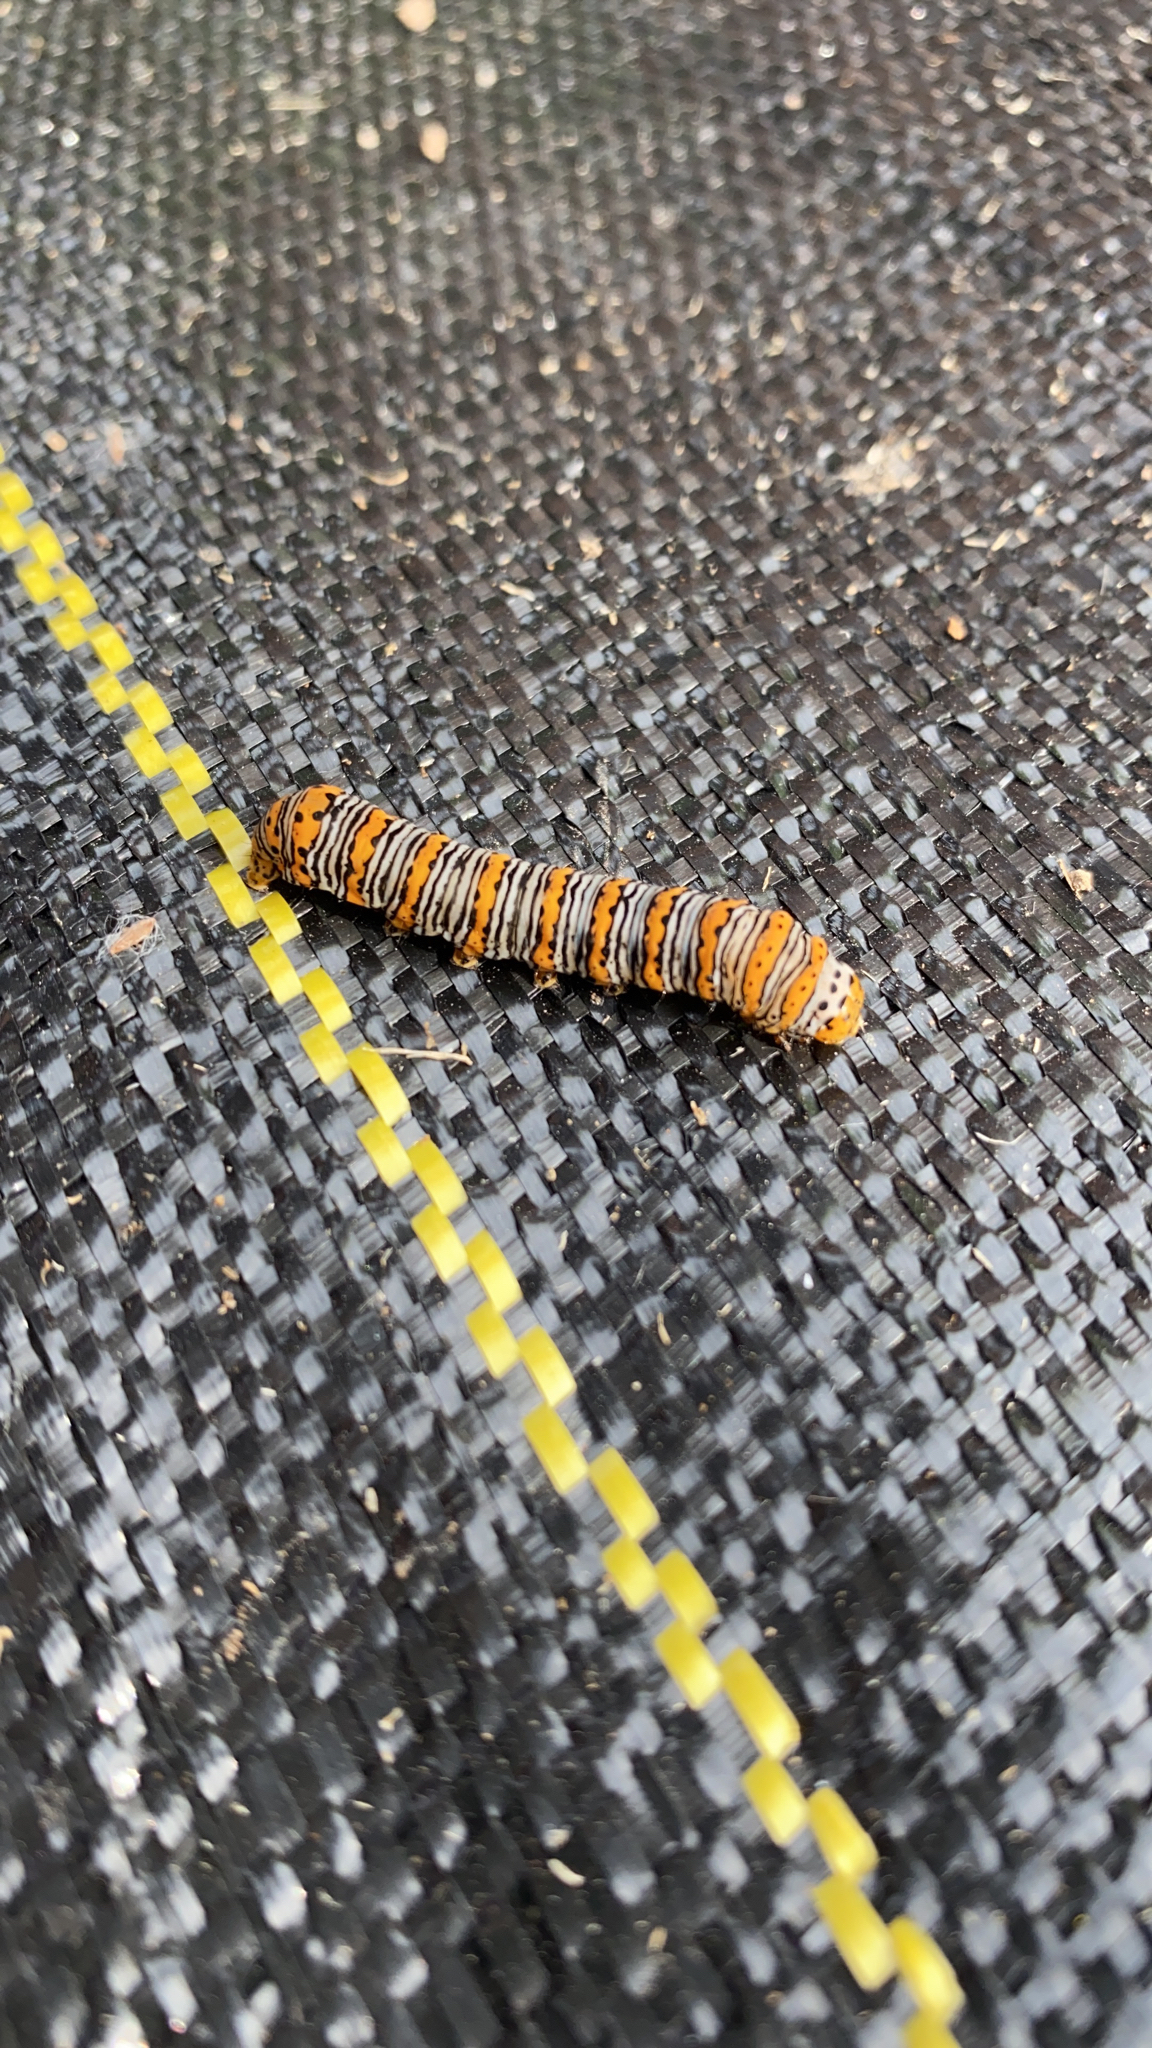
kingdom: Animalia
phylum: Arthropoda
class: Insecta
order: Lepidoptera
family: Noctuidae
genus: Eudryas
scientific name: Eudryas unio
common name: Pearly wood-nymph
